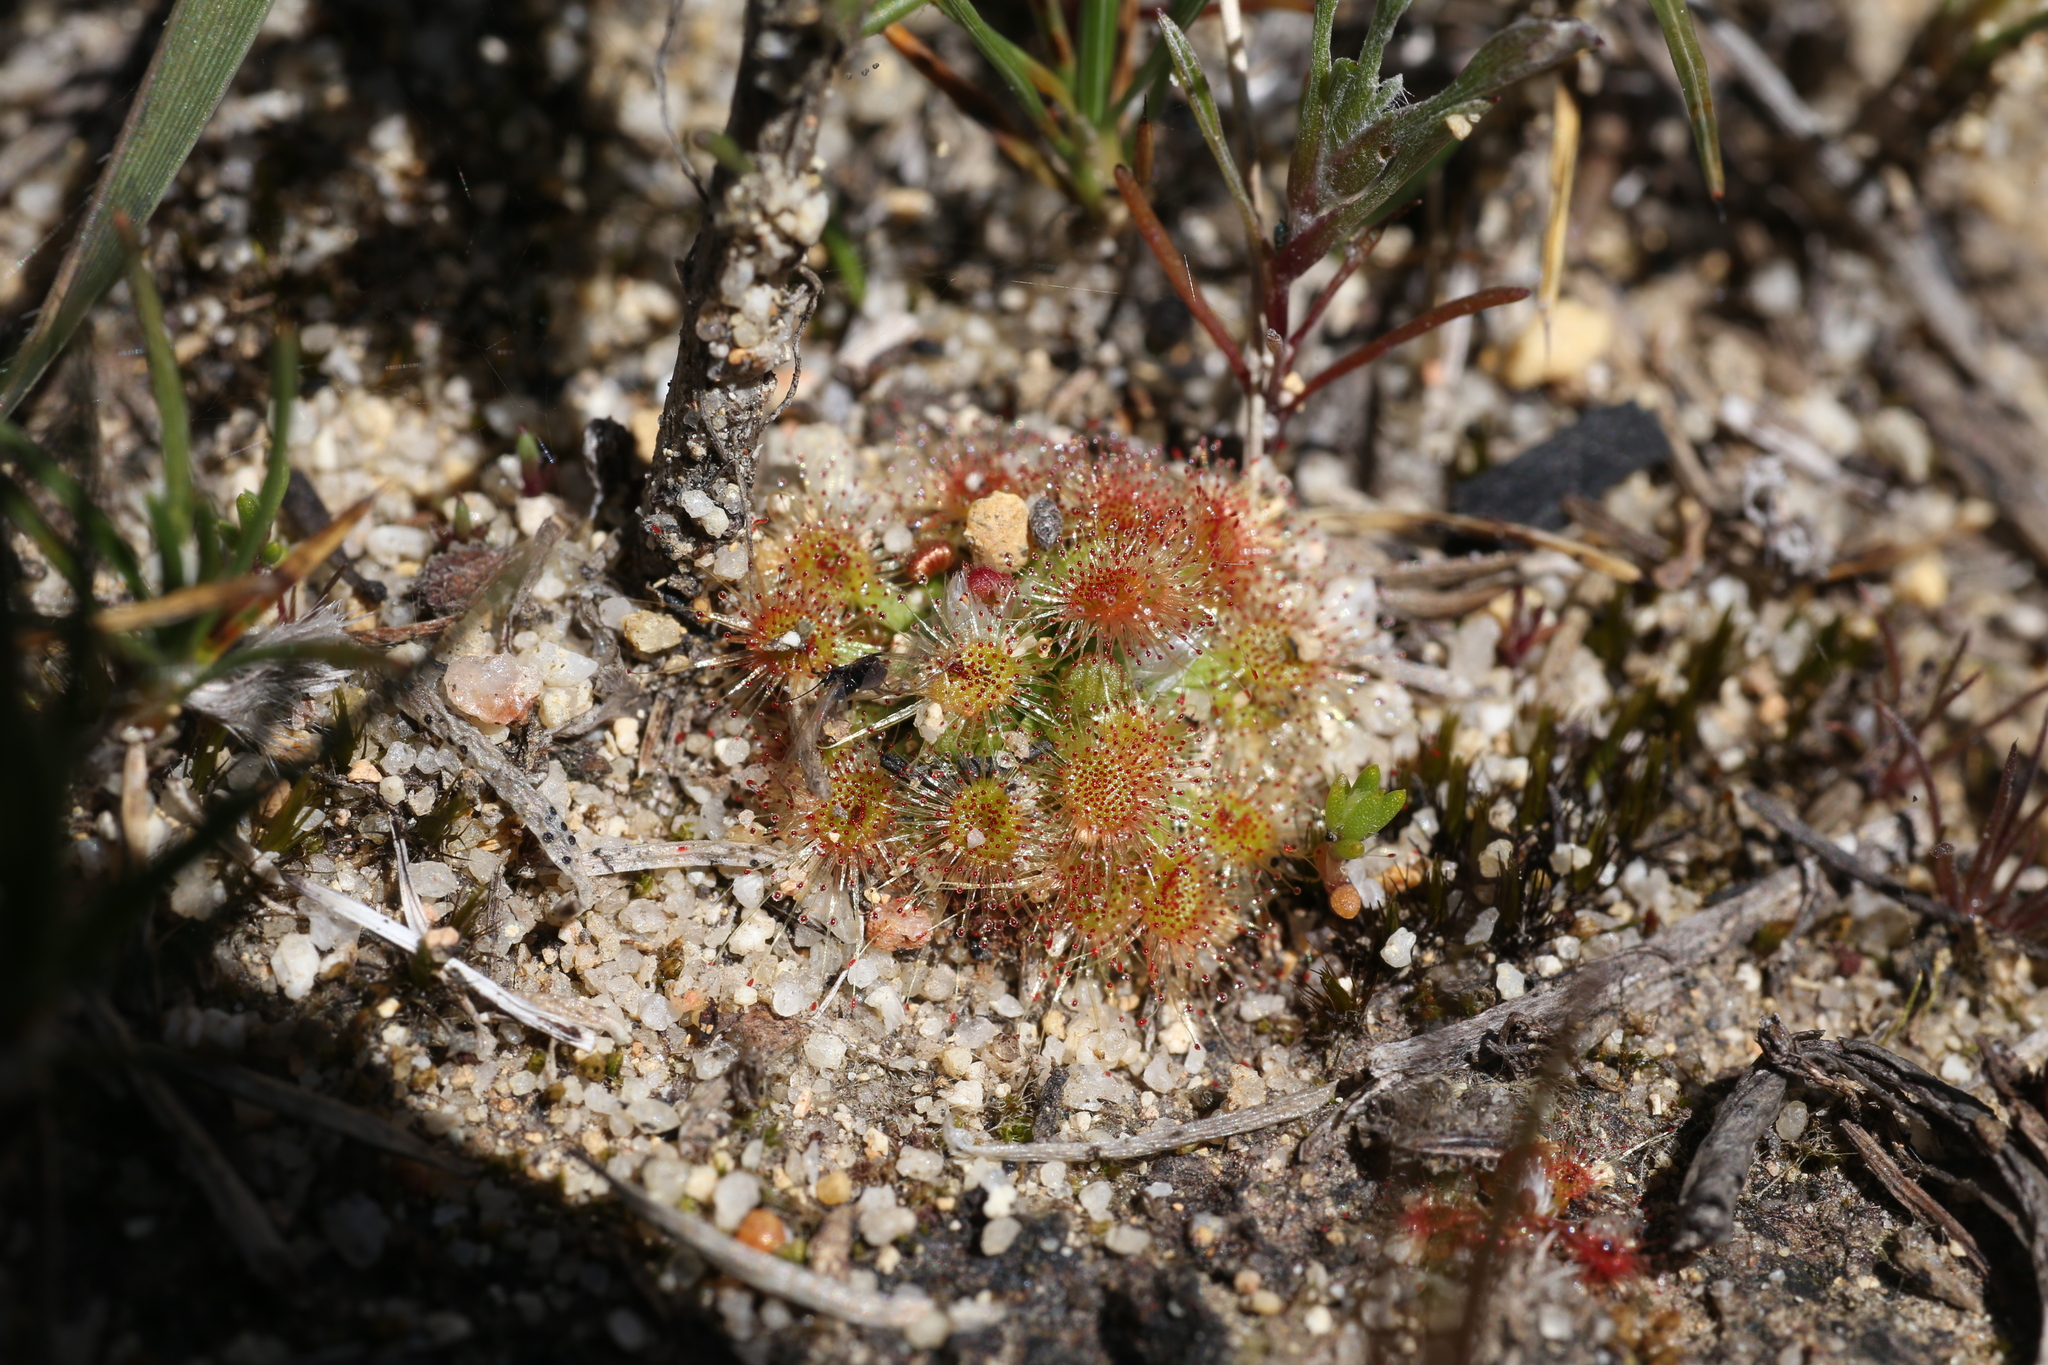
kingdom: Plantae
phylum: Tracheophyta
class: Magnoliopsida
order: Caryophyllales
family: Droseraceae
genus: Drosera
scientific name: Drosera walyunga
